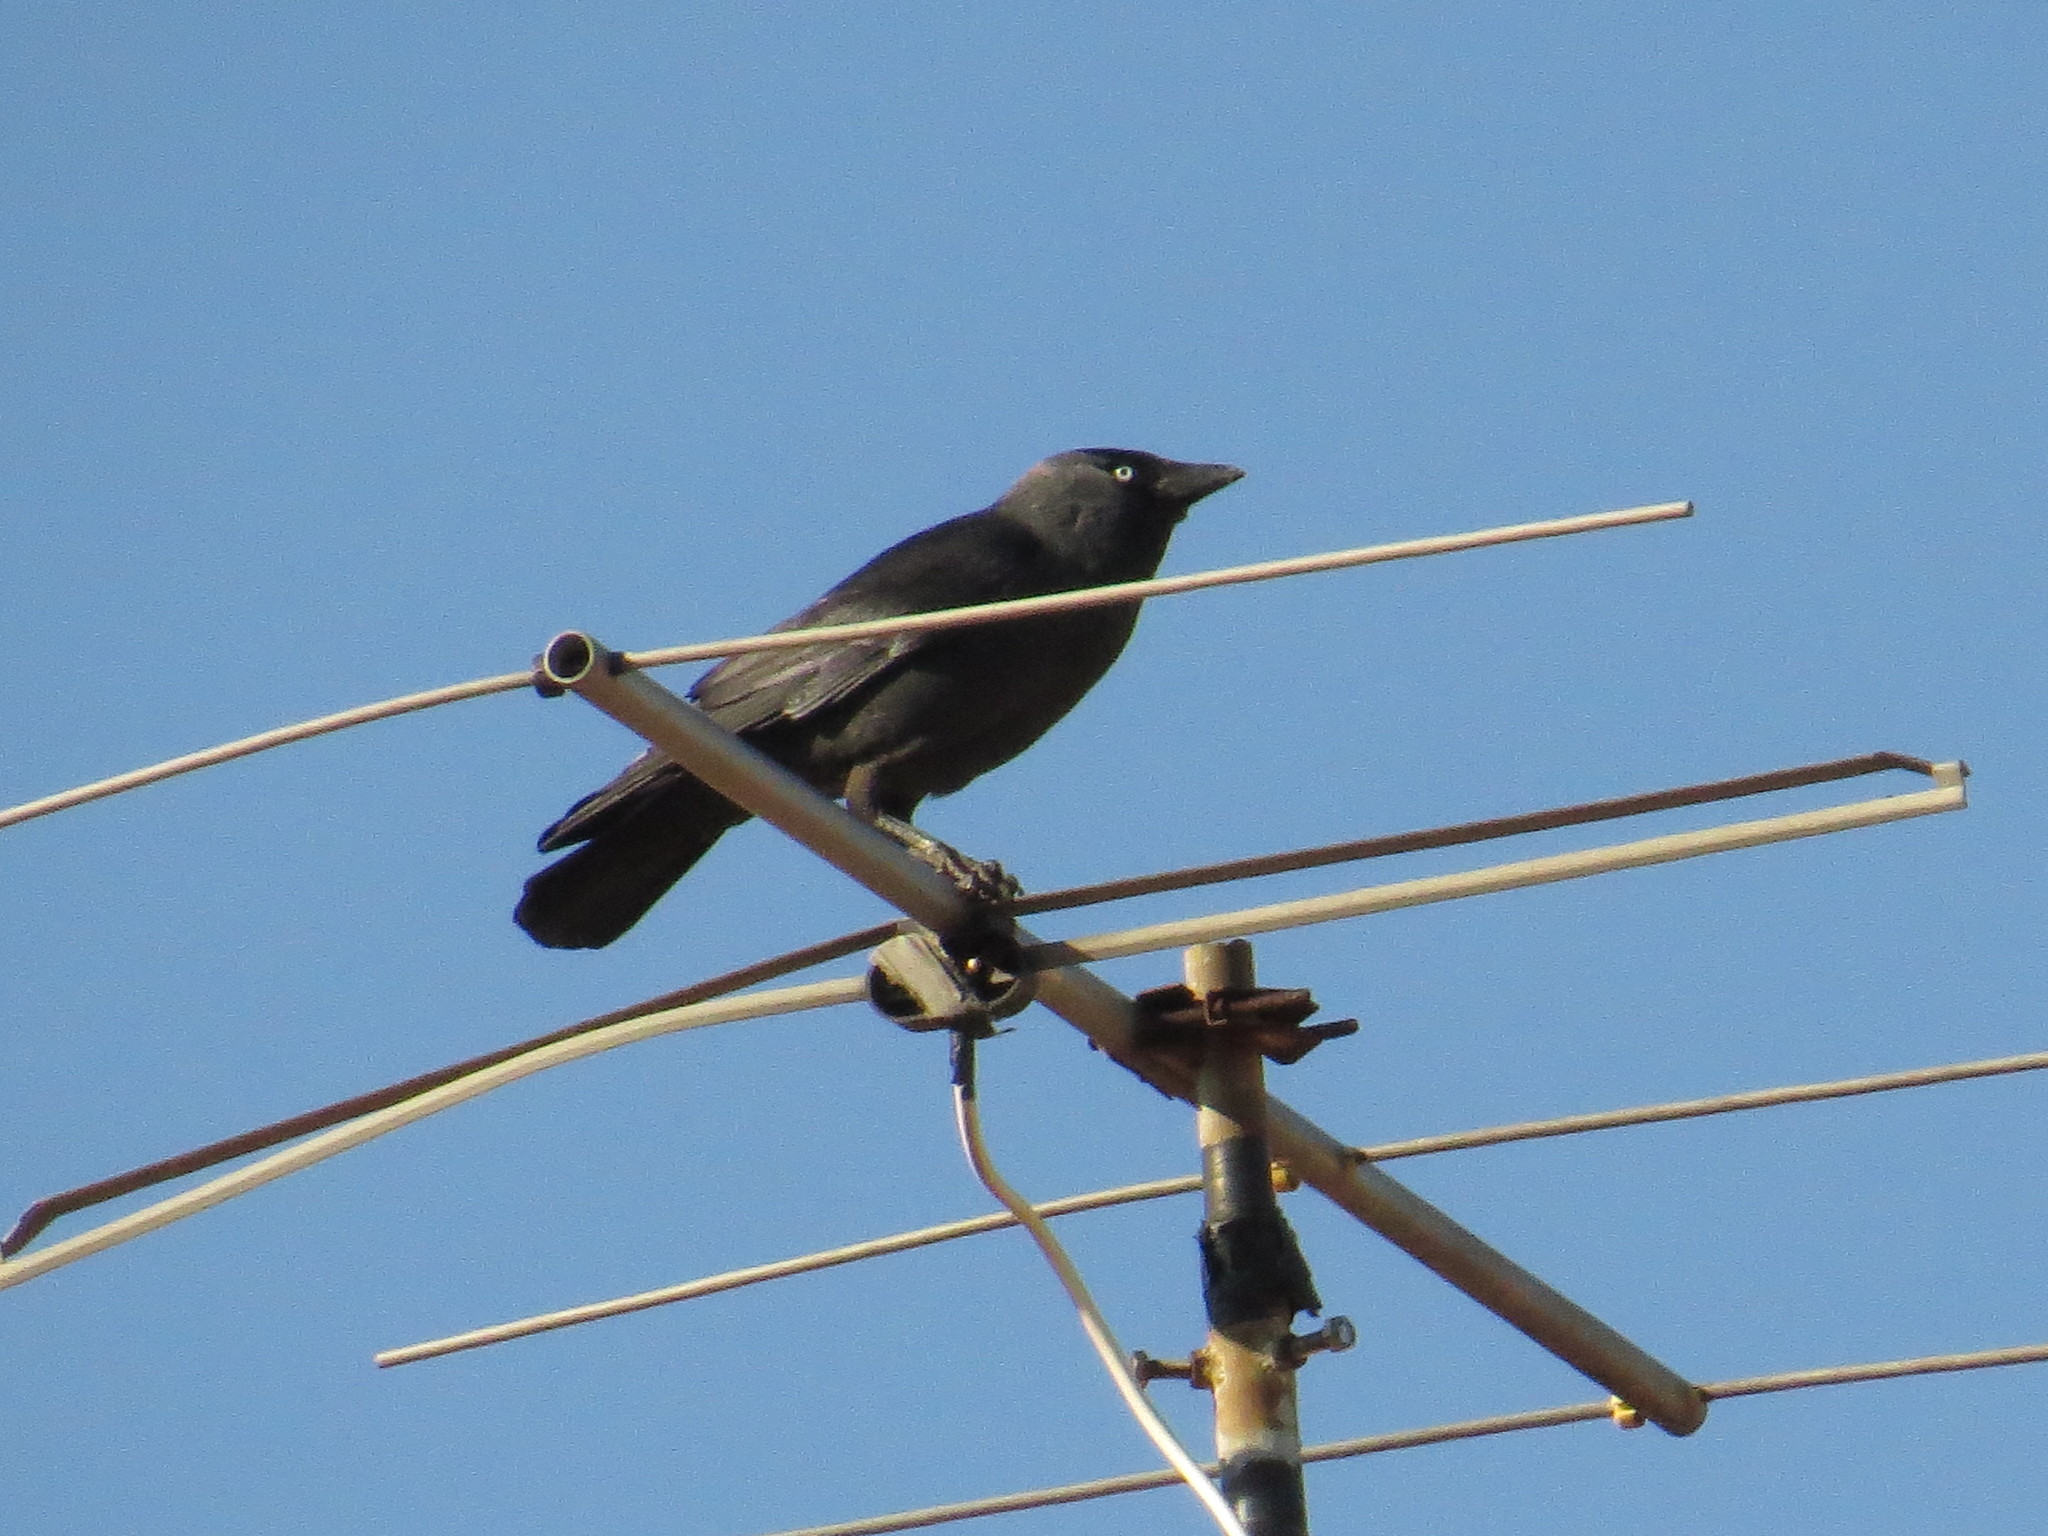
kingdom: Animalia
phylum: Chordata
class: Aves
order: Passeriformes
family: Corvidae
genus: Coloeus
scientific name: Coloeus monedula
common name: Western jackdaw
